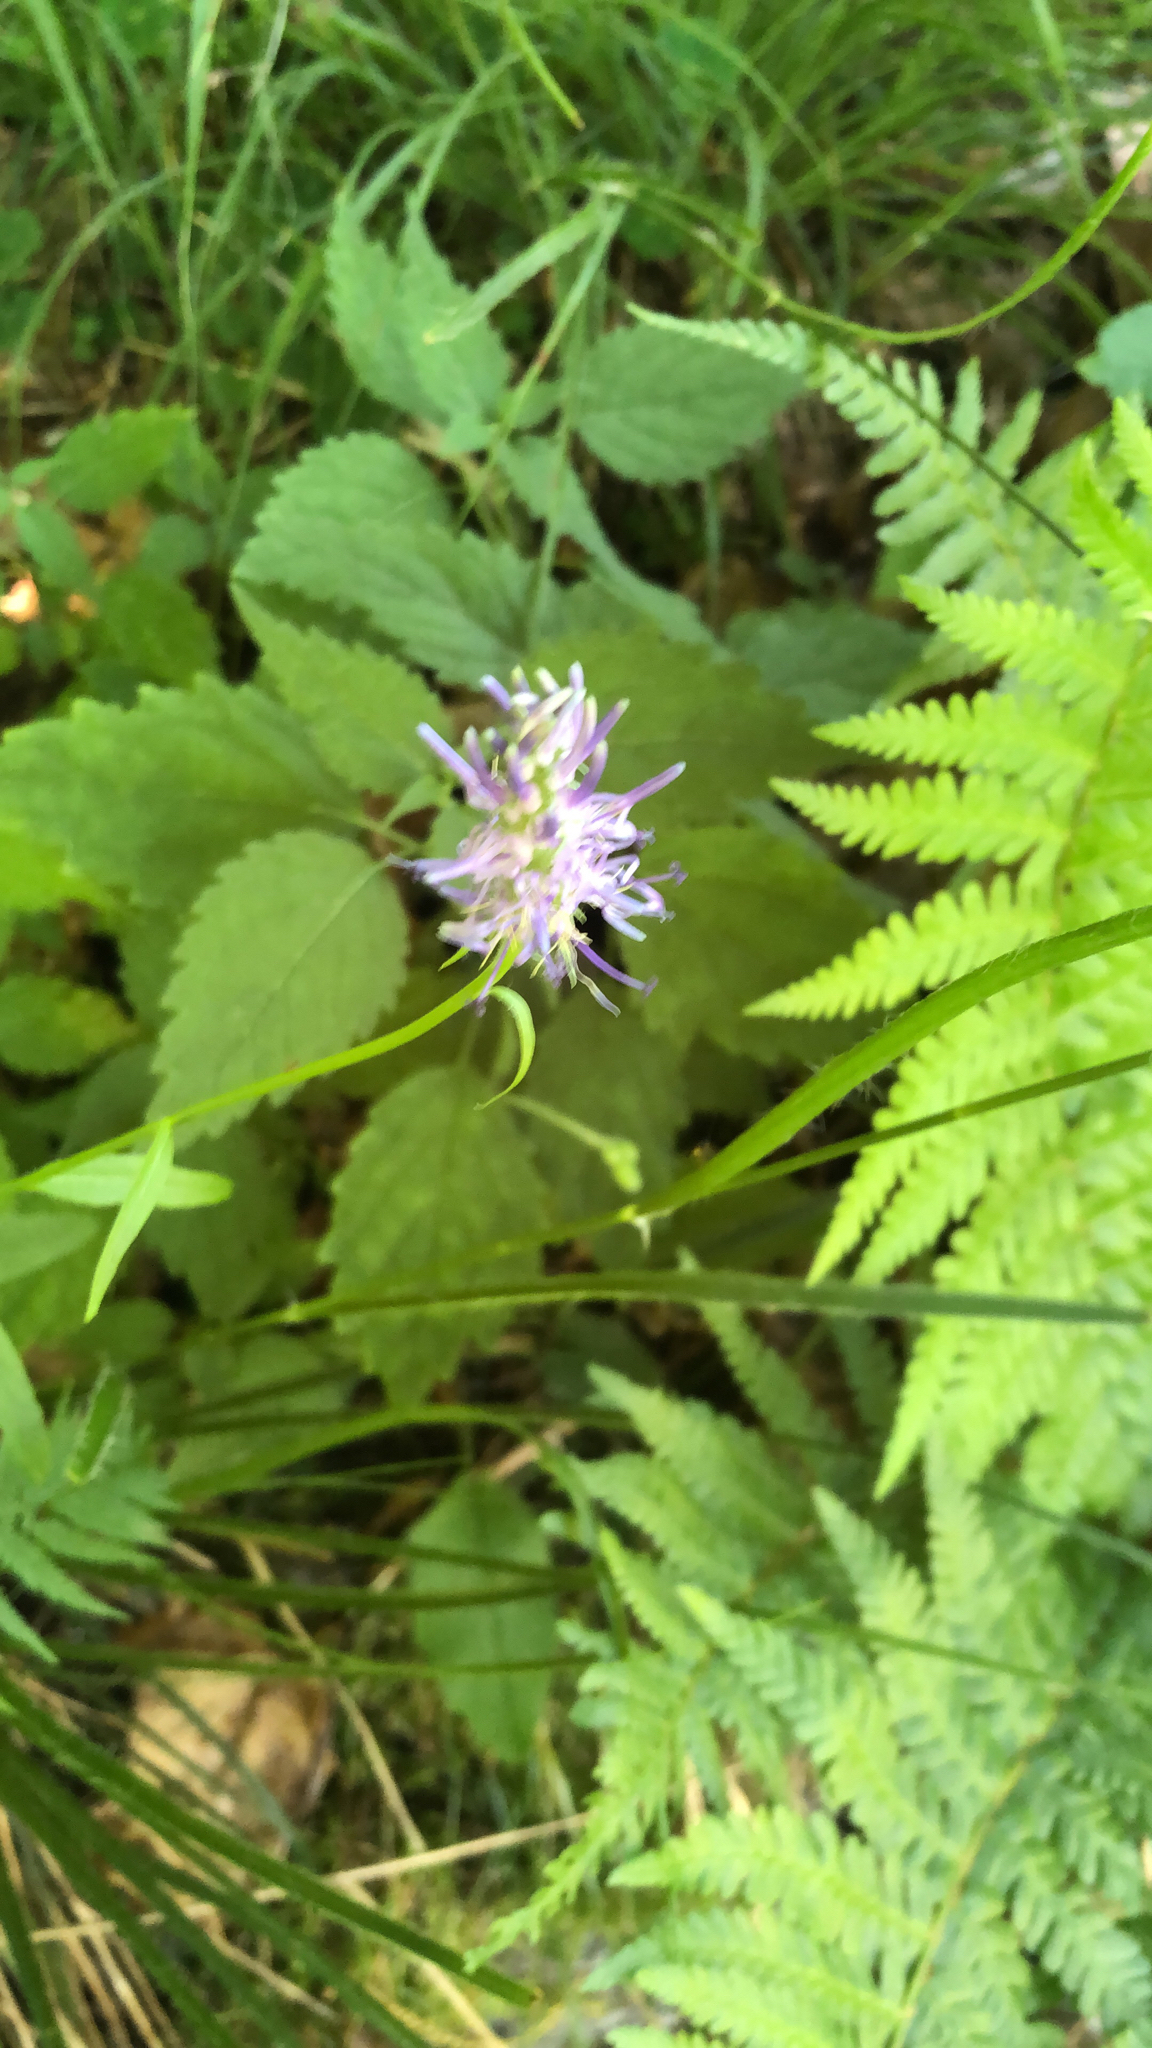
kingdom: Plantae
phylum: Tracheophyta
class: Magnoliopsida
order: Asterales
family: Campanulaceae
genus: Phyteuma
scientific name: Phyteuma spicatum
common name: Spiked rampion
